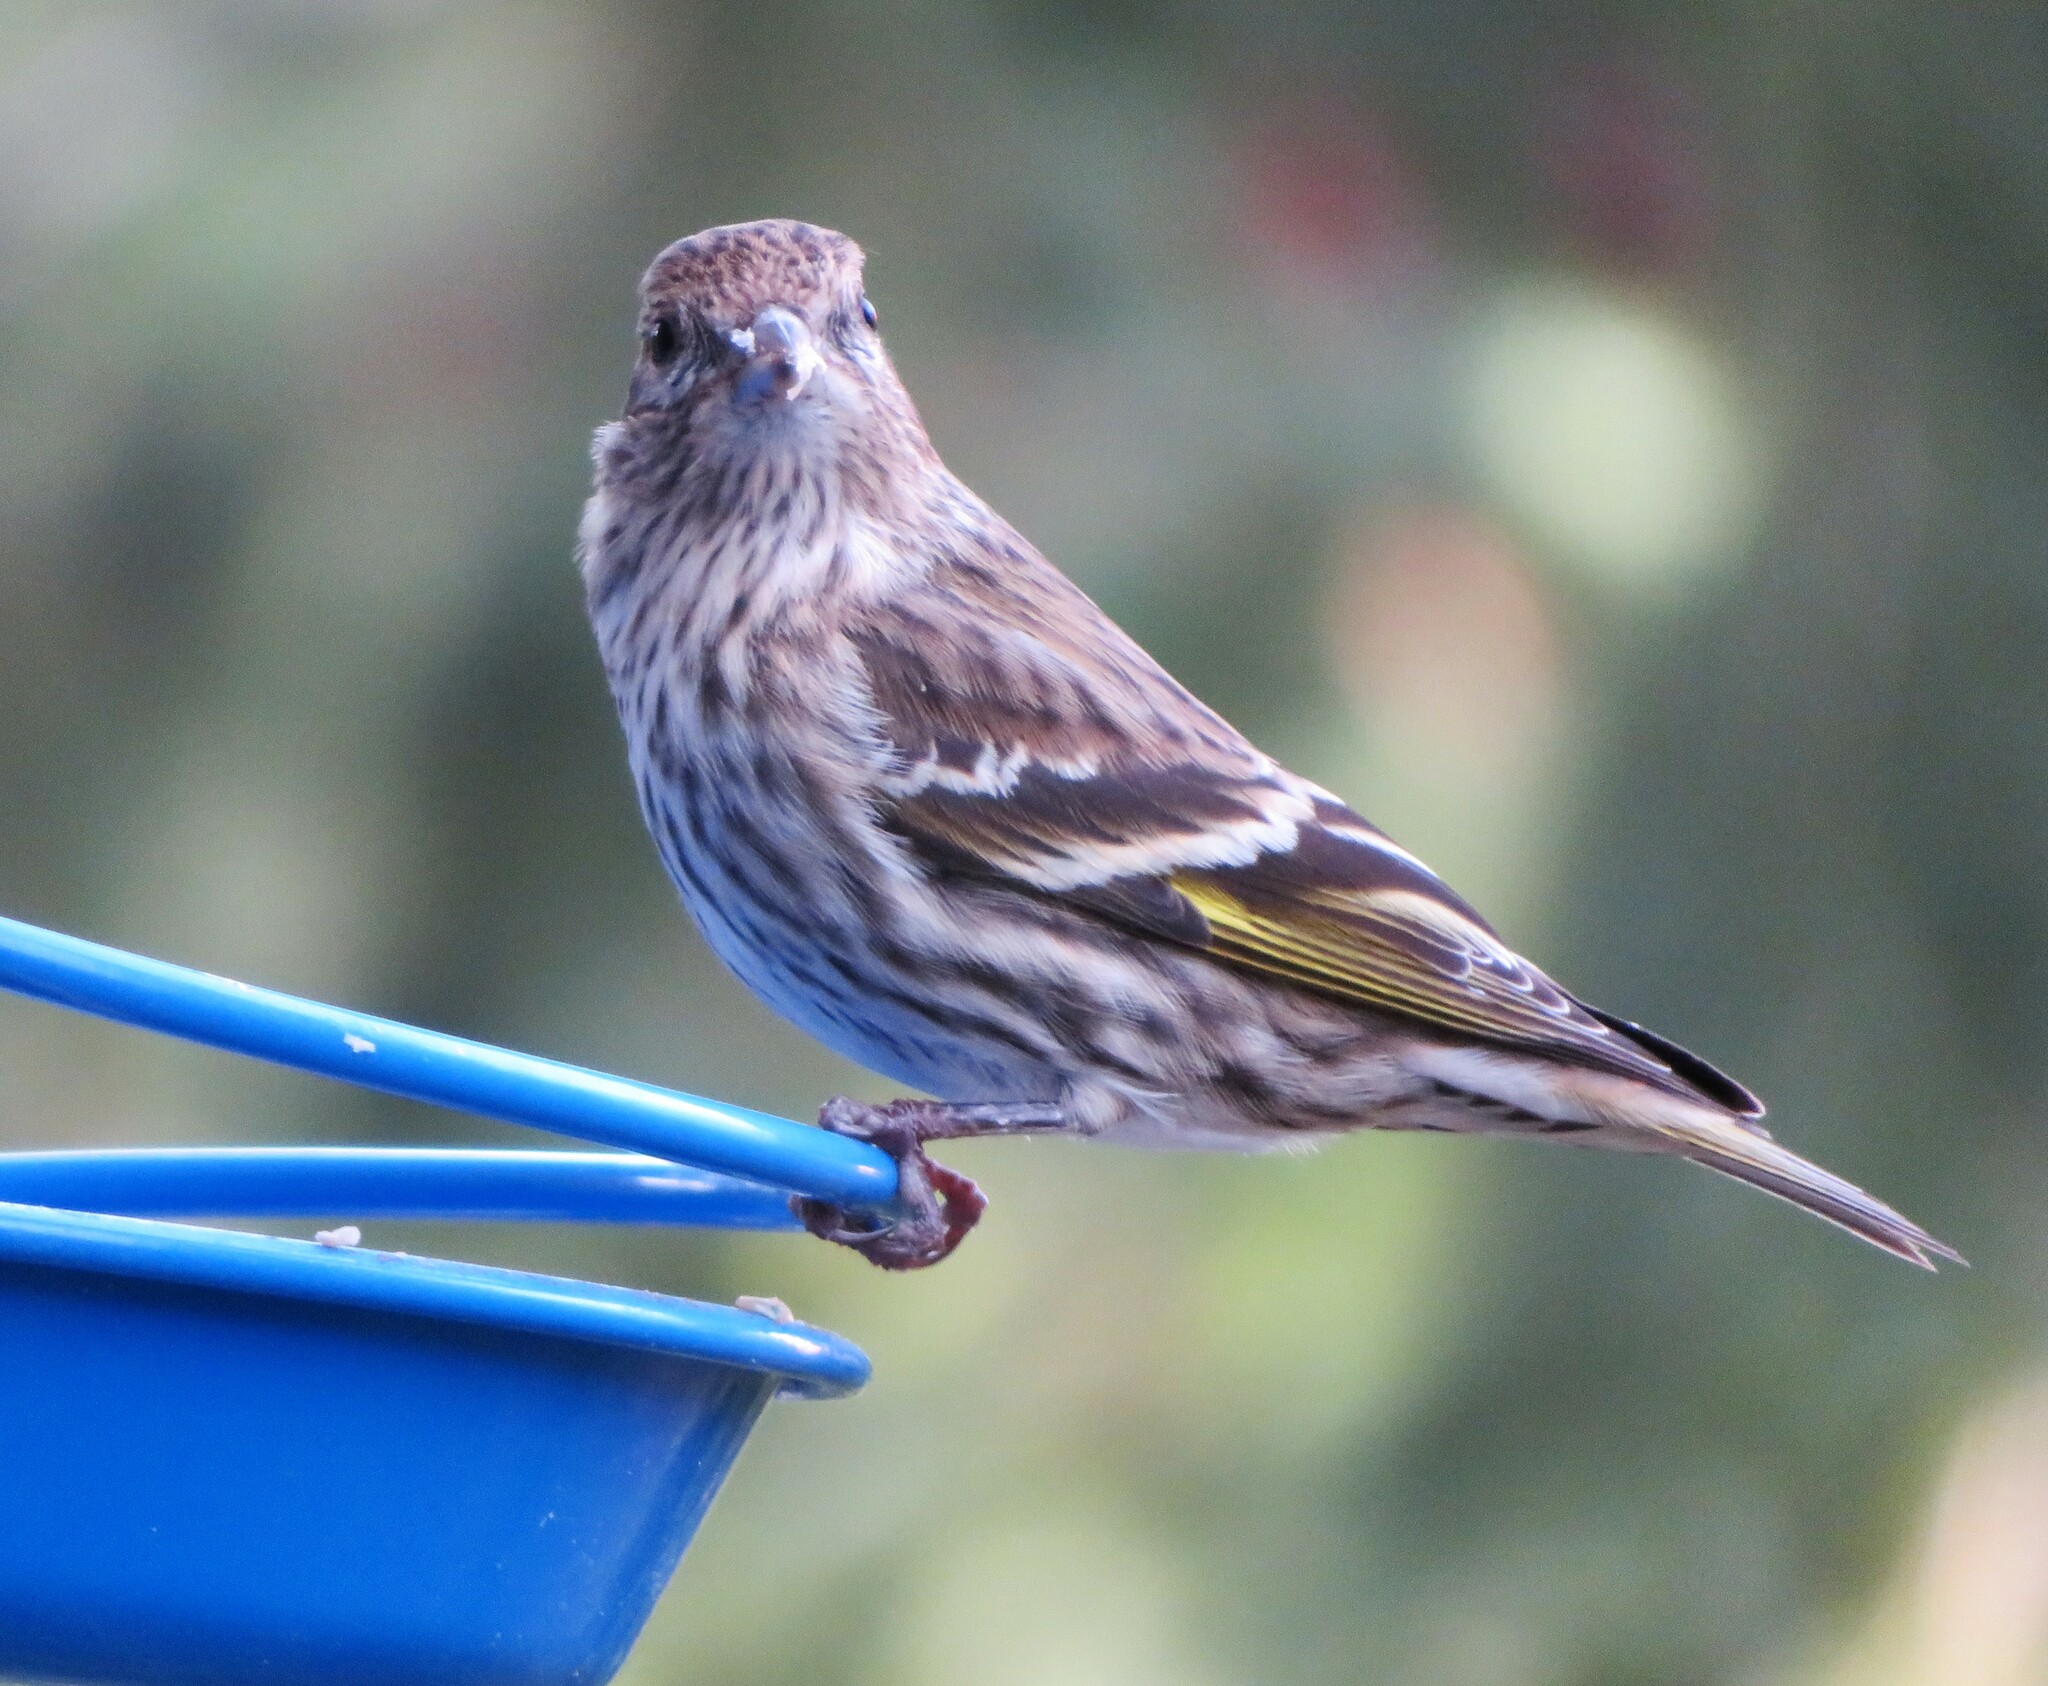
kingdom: Animalia
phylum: Chordata
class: Aves
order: Passeriformes
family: Fringillidae
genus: Spinus
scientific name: Spinus pinus
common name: Pine siskin
